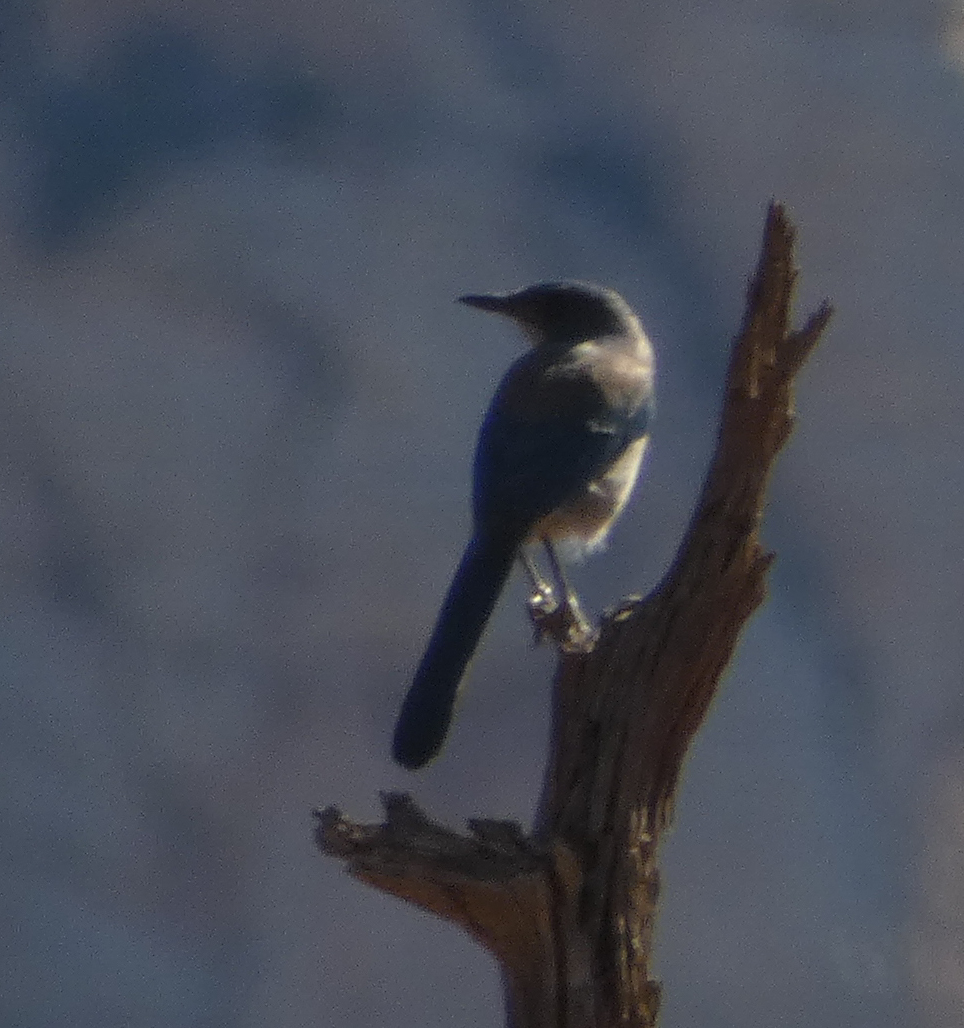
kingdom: Animalia
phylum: Chordata
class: Aves
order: Passeriformes
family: Corvidae
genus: Aphelocoma
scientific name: Aphelocoma woodhouseii
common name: Woodhouse's scrub-jay
